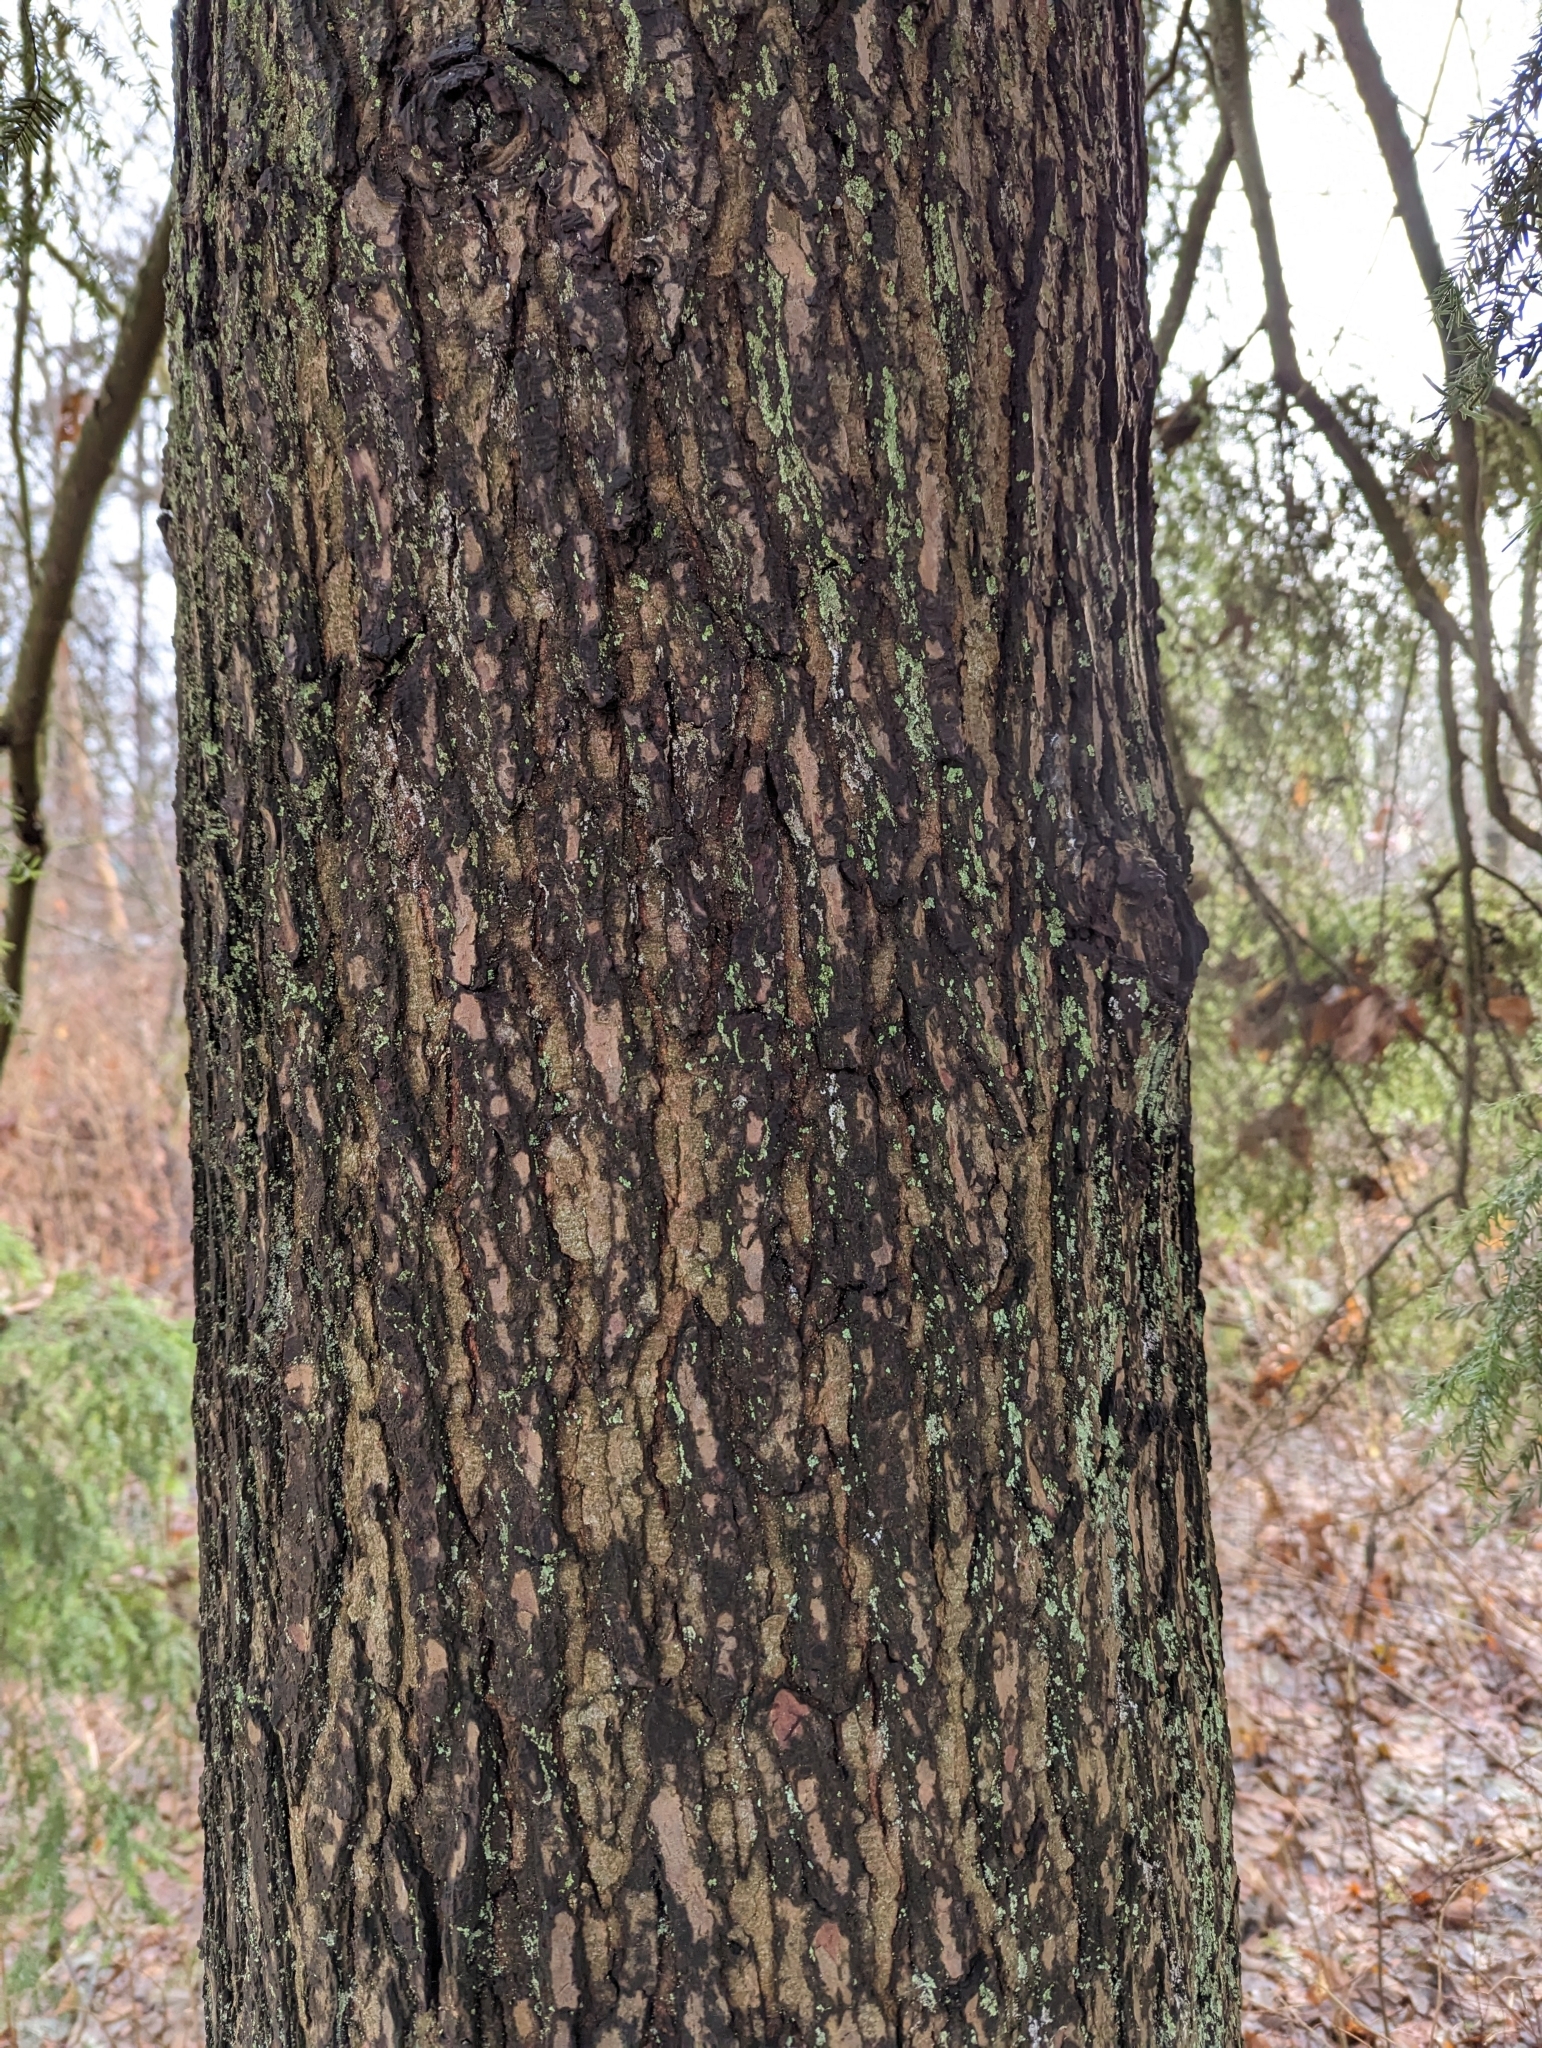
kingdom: Plantae
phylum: Tracheophyta
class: Pinopsida
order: Pinales
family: Pinaceae
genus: Tsuga
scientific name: Tsuga heterophylla
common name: Western hemlock
